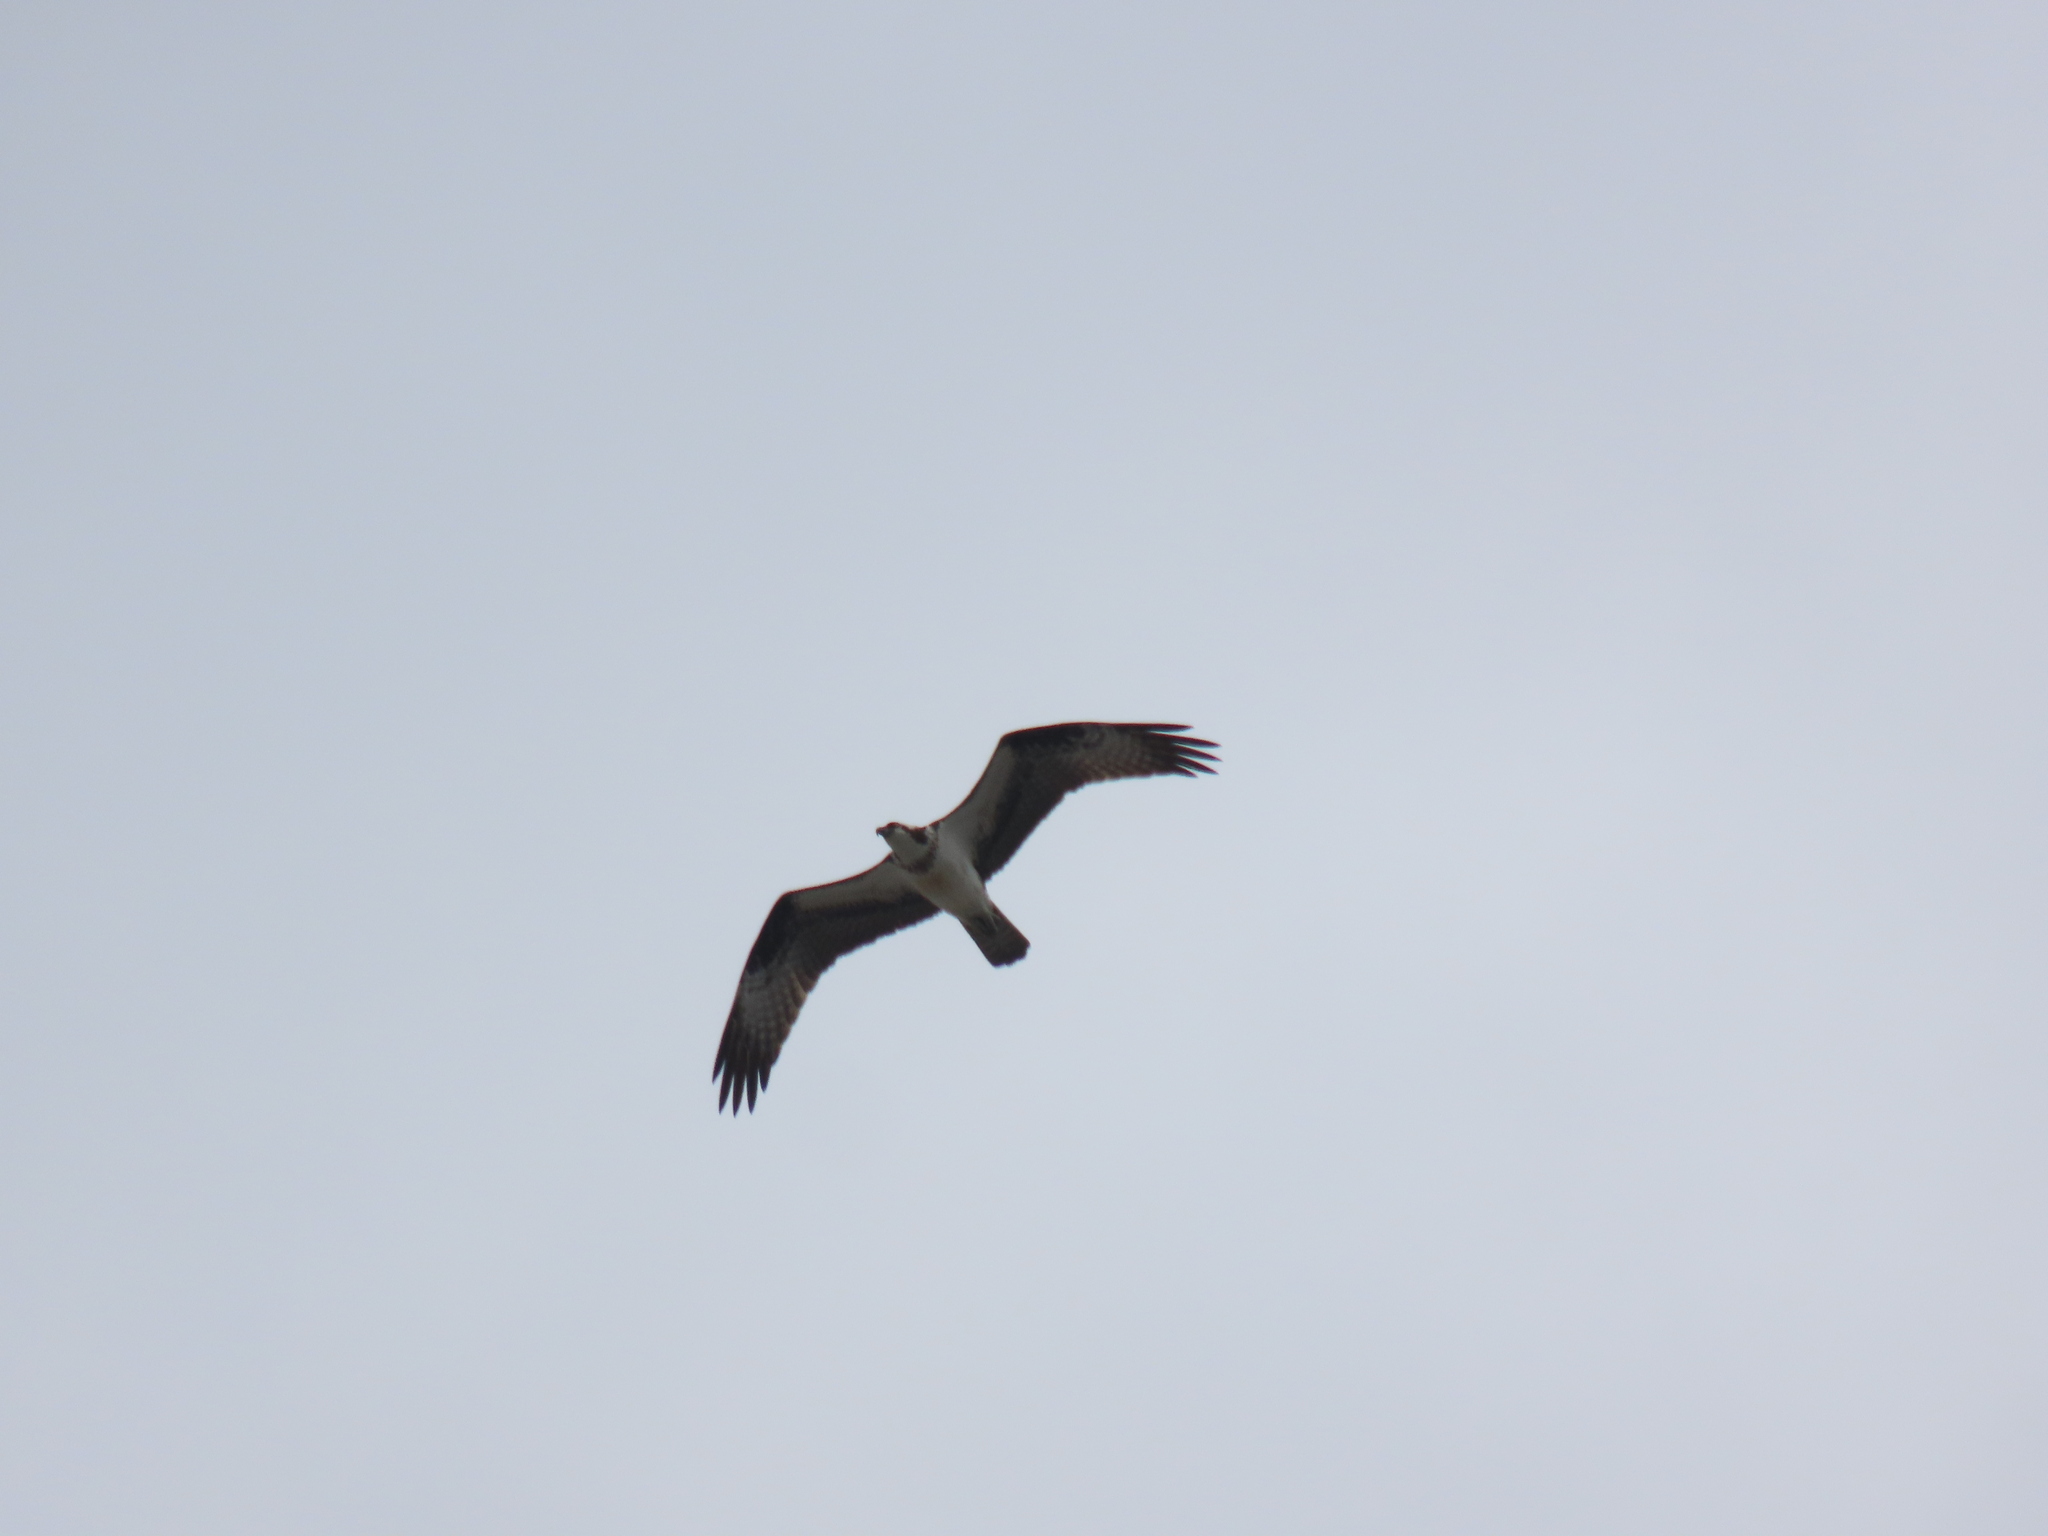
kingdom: Animalia
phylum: Chordata
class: Aves
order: Accipitriformes
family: Pandionidae
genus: Pandion
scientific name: Pandion haliaetus
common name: Osprey
